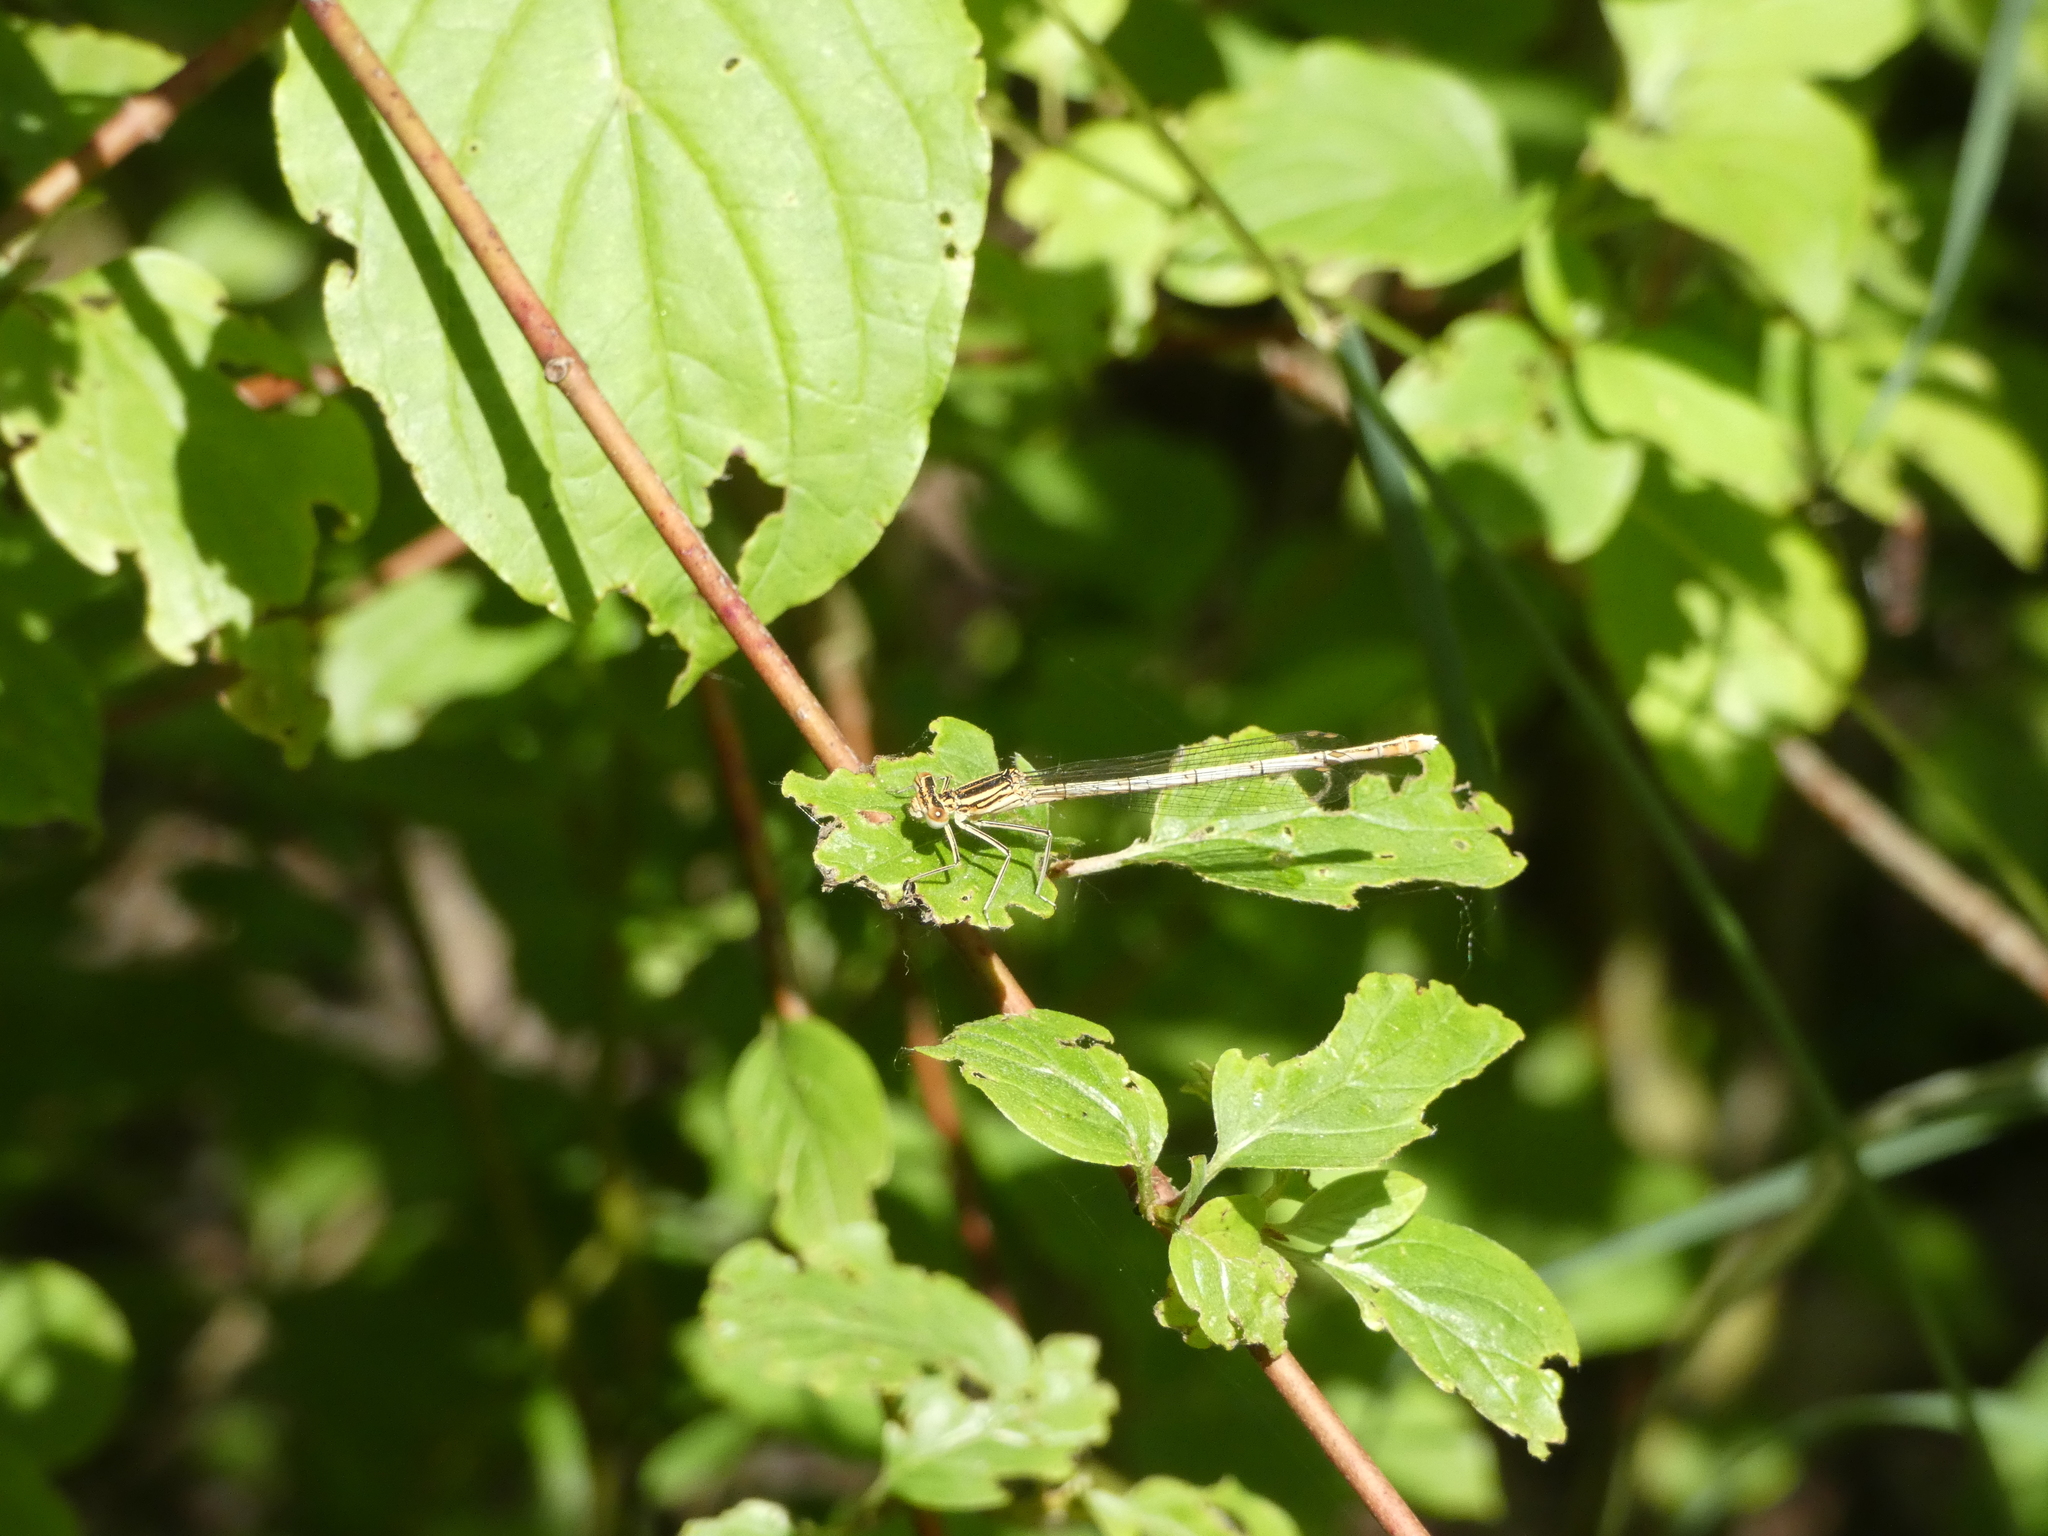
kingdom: Animalia
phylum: Arthropoda
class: Insecta
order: Odonata
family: Platycnemididae
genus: Platycnemis
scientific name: Platycnemis pennipes
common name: White-legged damselfly
